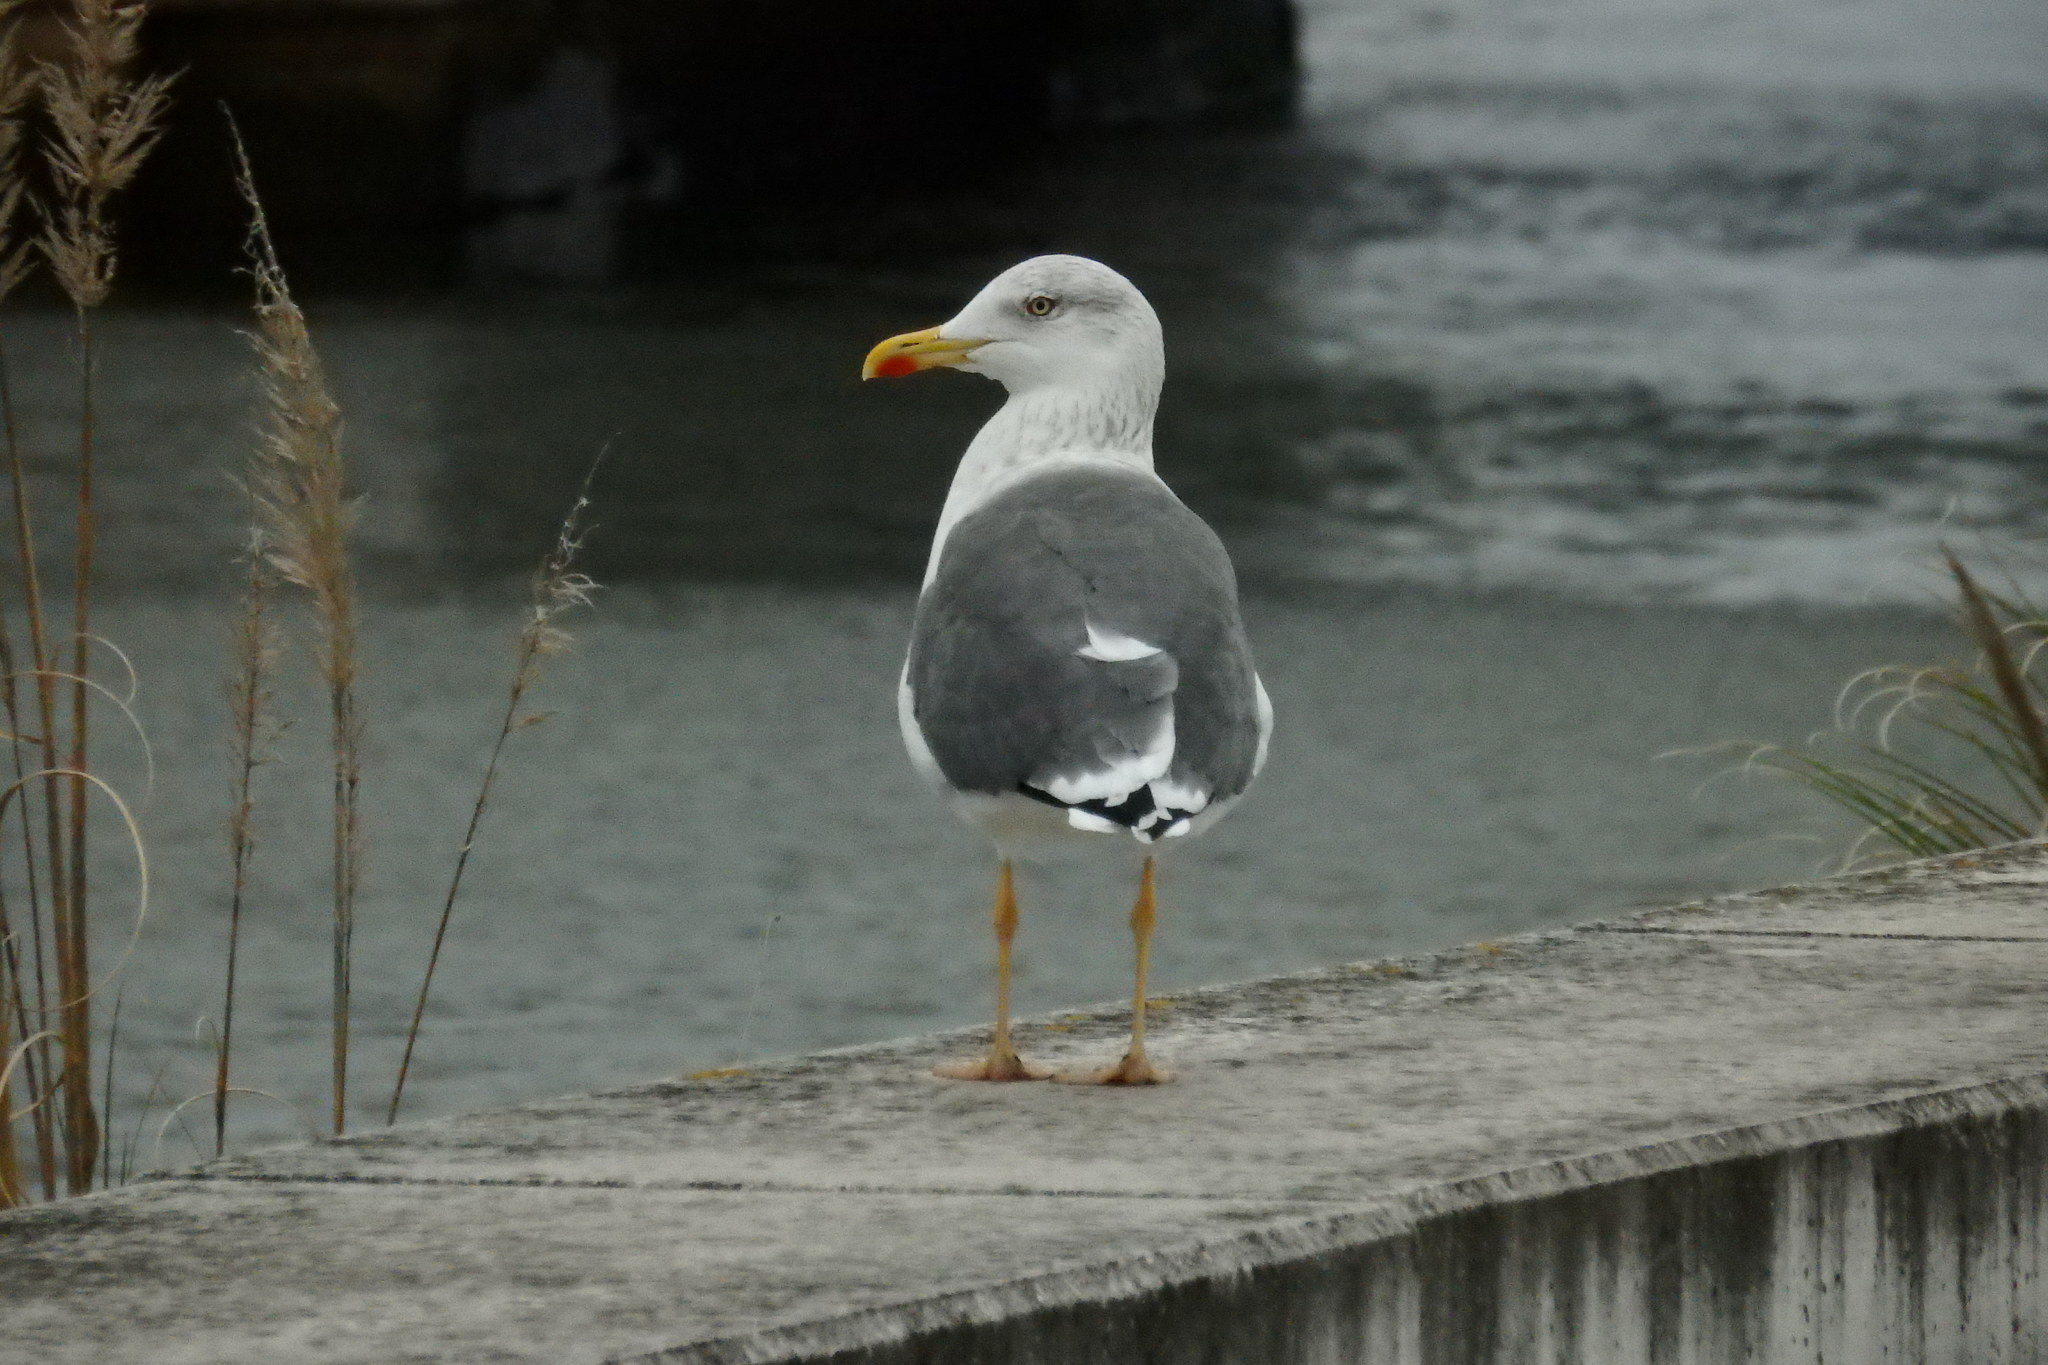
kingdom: Animalia
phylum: Chordata
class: Aves
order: Charadriiformes
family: Laridae
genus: Larus
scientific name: Larus michahellis
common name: Yellow-legged gull
